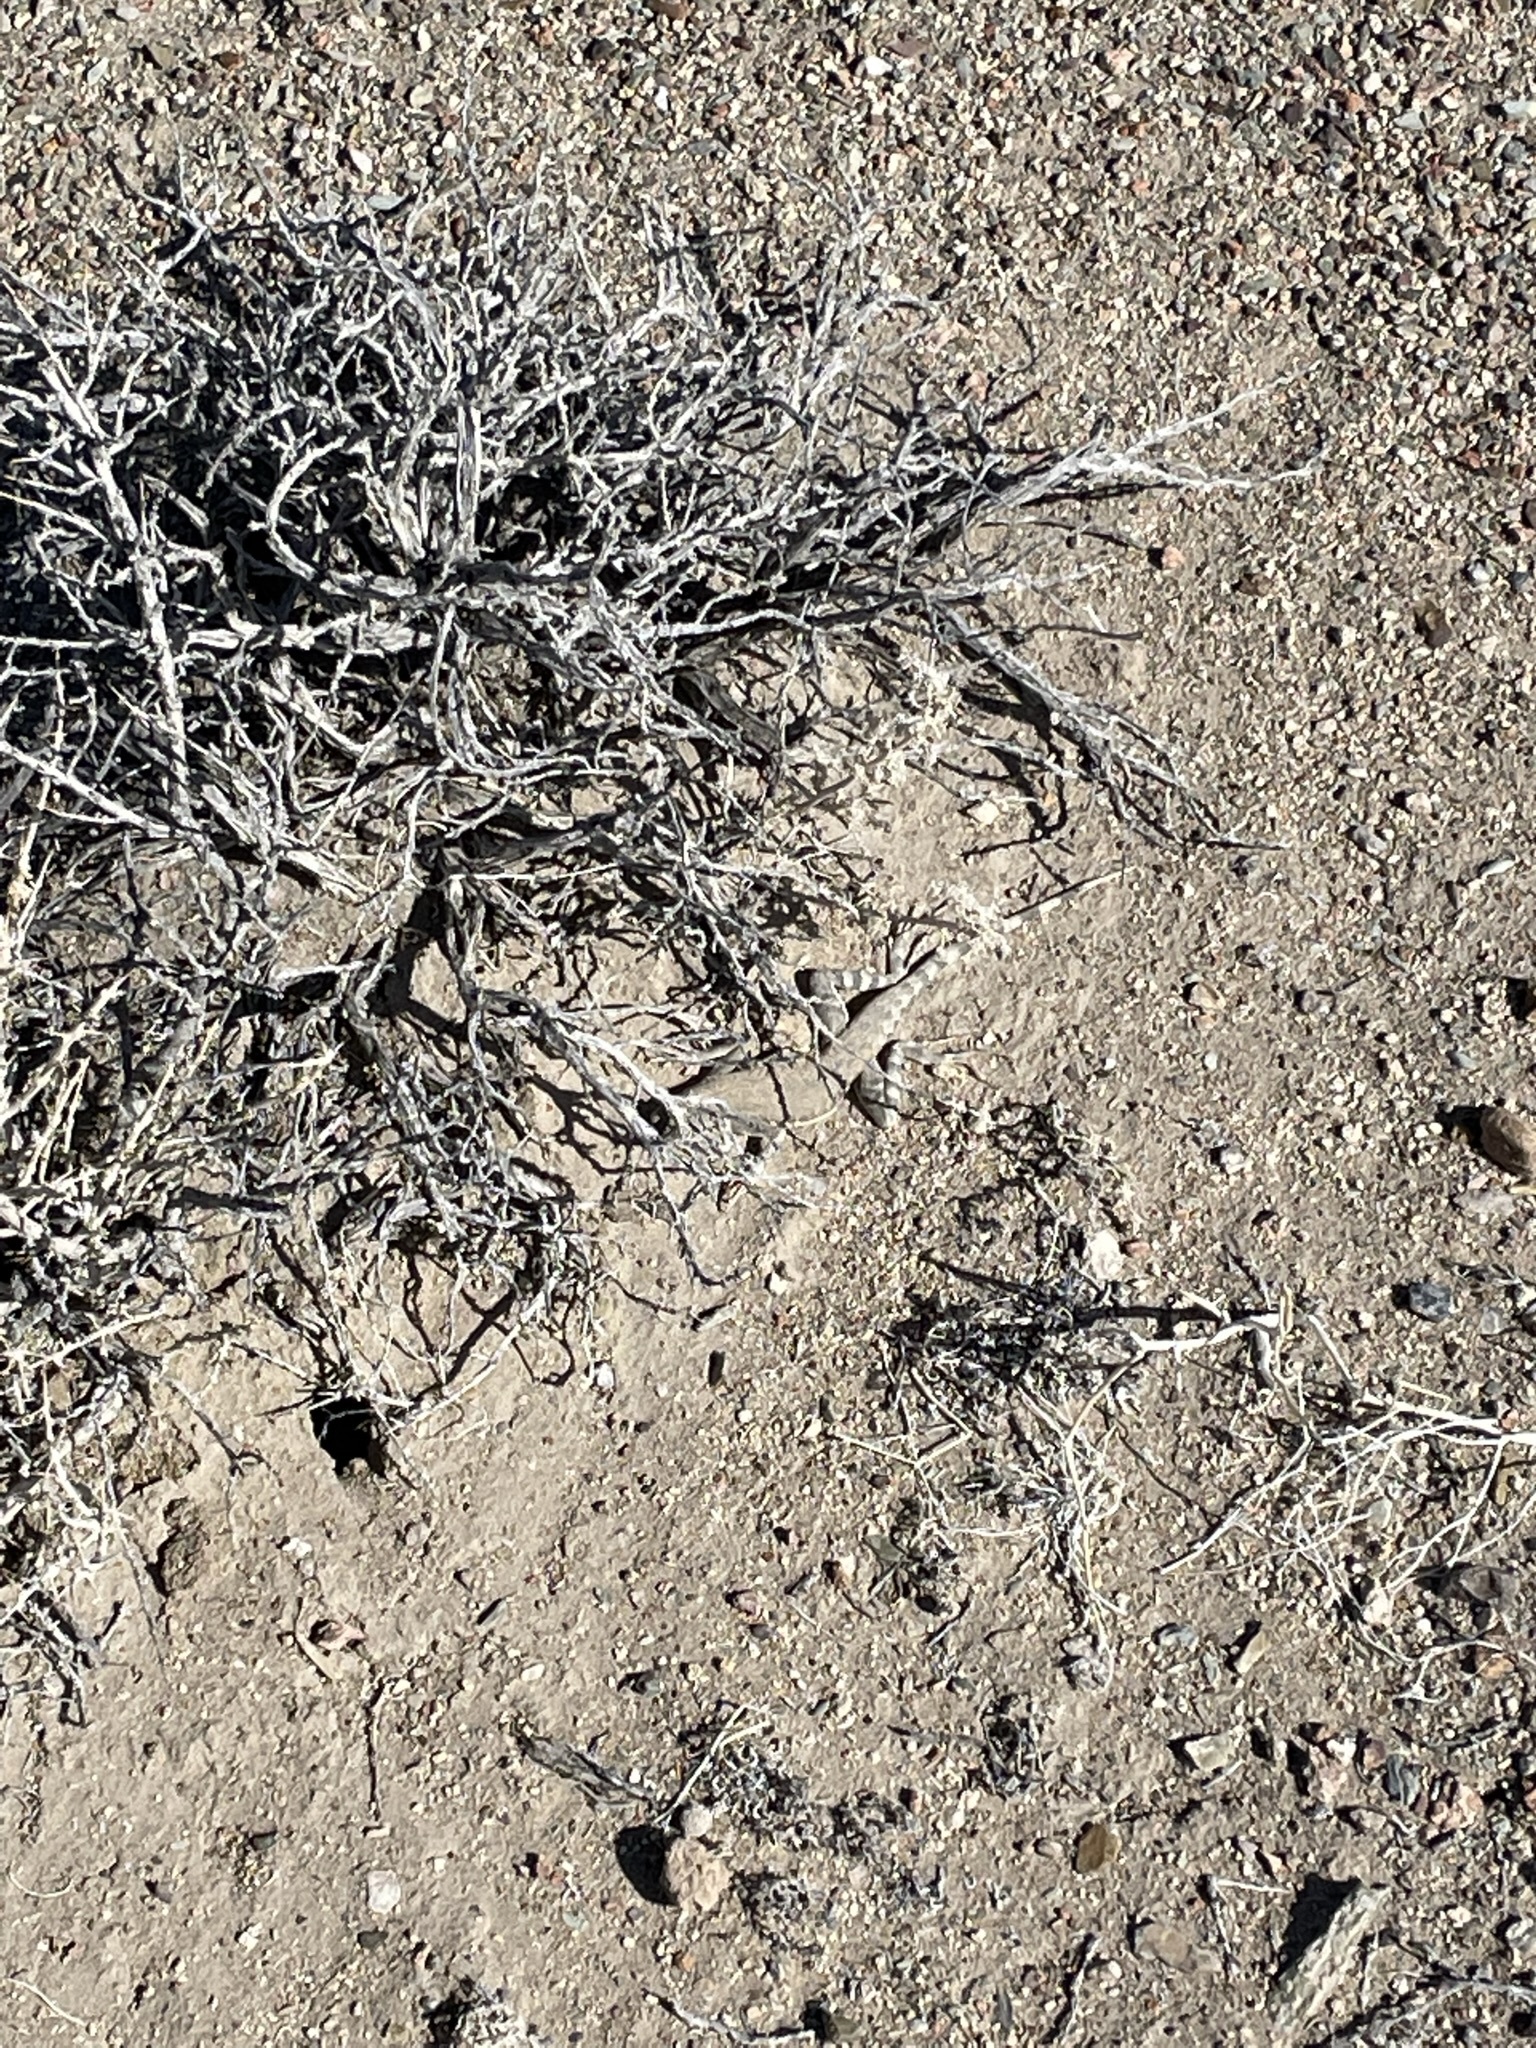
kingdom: Animalia
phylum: Chordata
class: Squamata
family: Phrynosomatidae
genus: Callisaurus
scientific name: Callisaurus draconoides
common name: Zebra-tailed lizard
